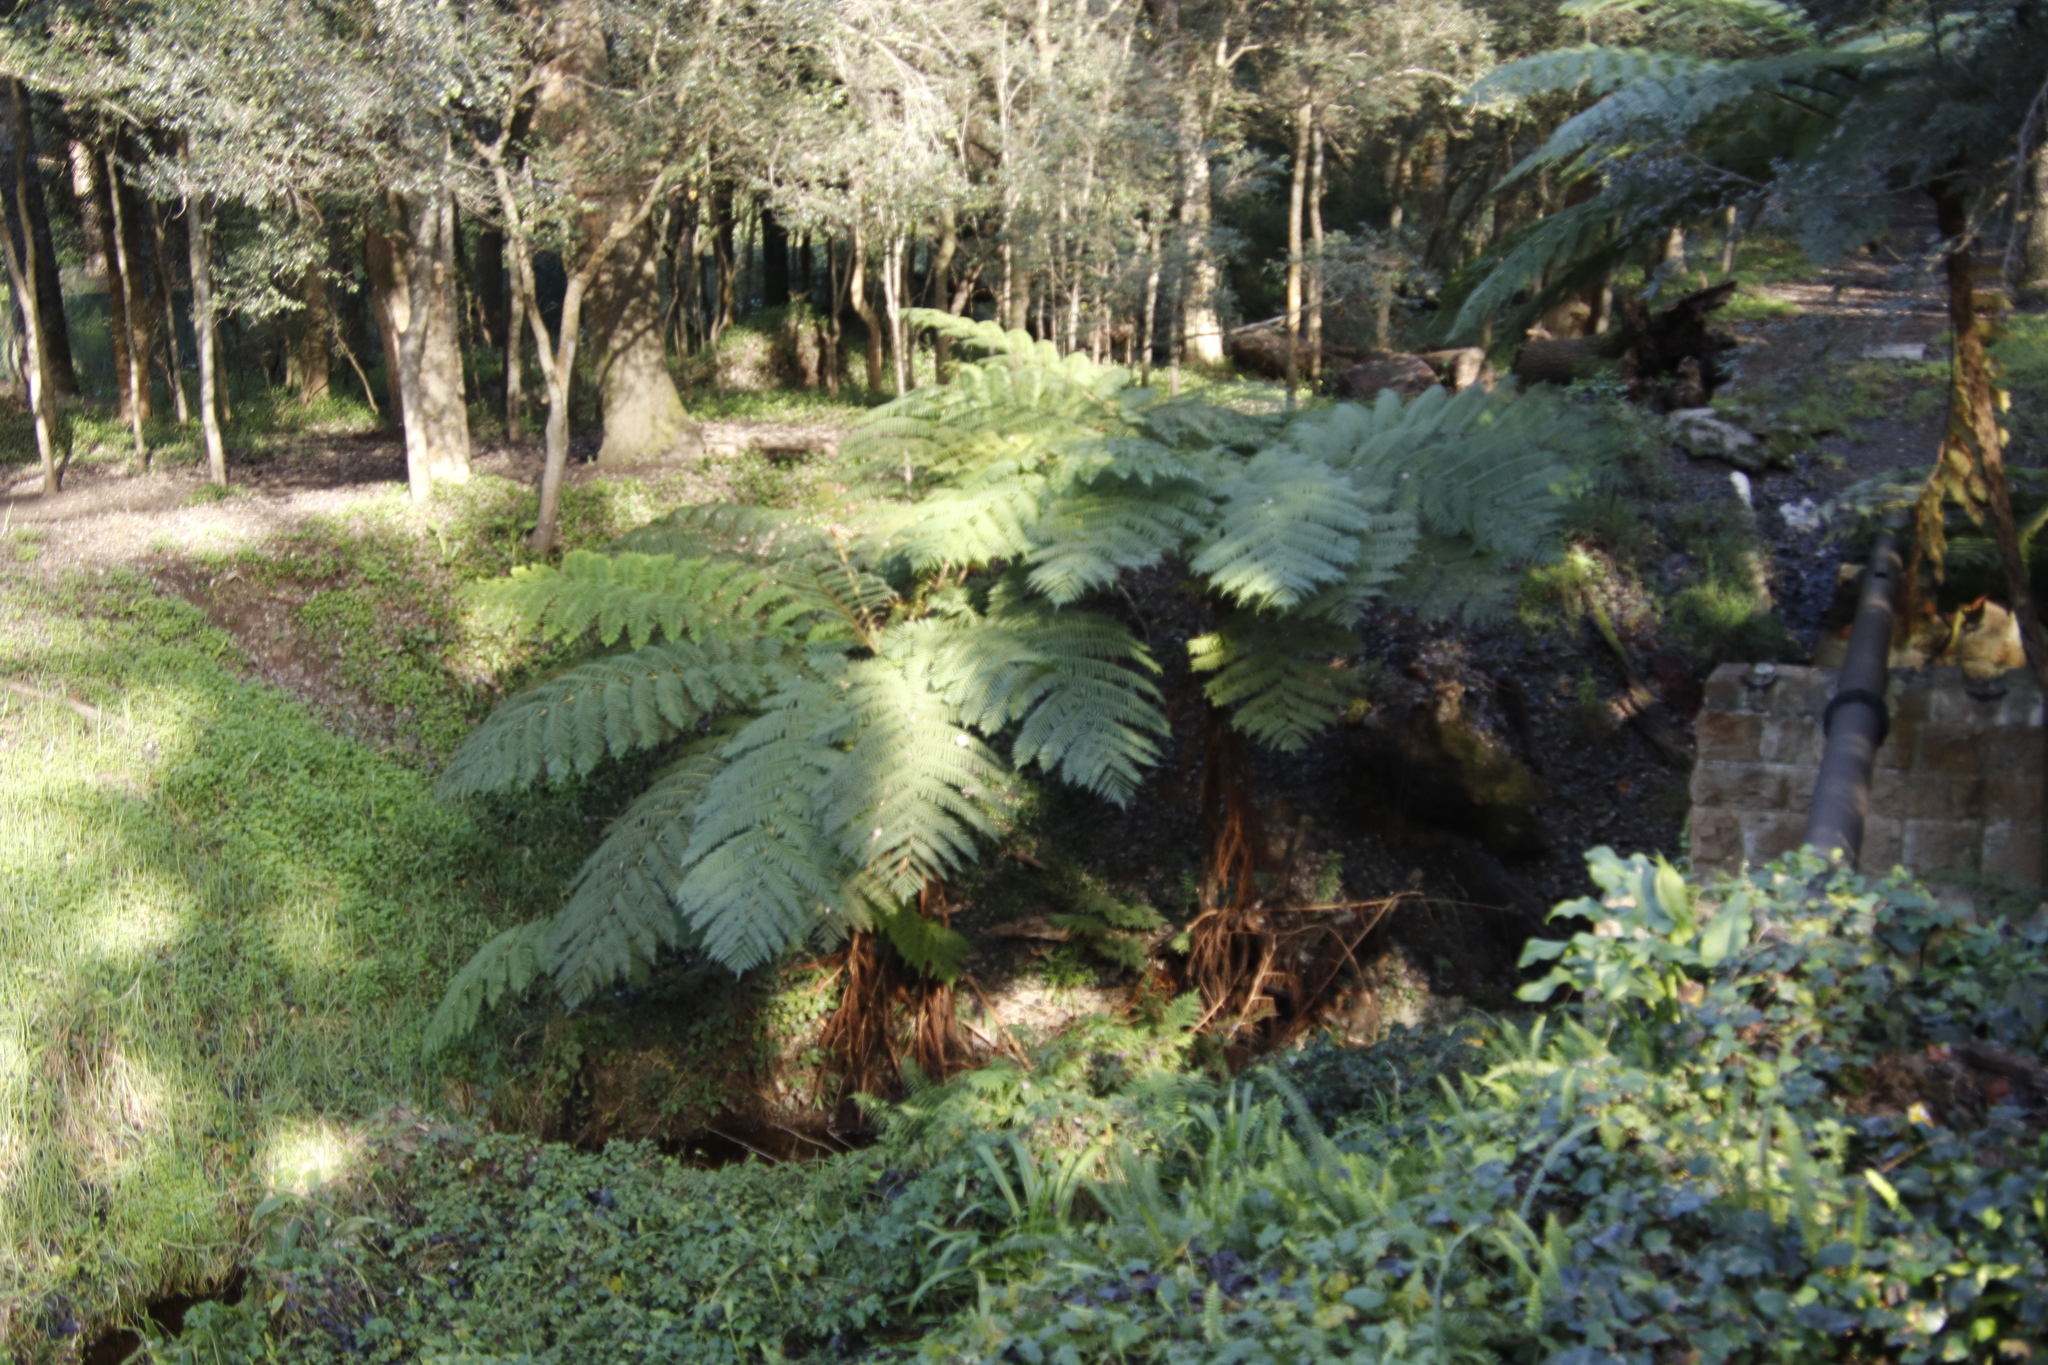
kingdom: Plantae
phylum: Tracheophyta
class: Polypodiopsida
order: Cyatheales
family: Cyatheaceae
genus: Sphaeropteris
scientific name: Sphaeropteris cooperi
